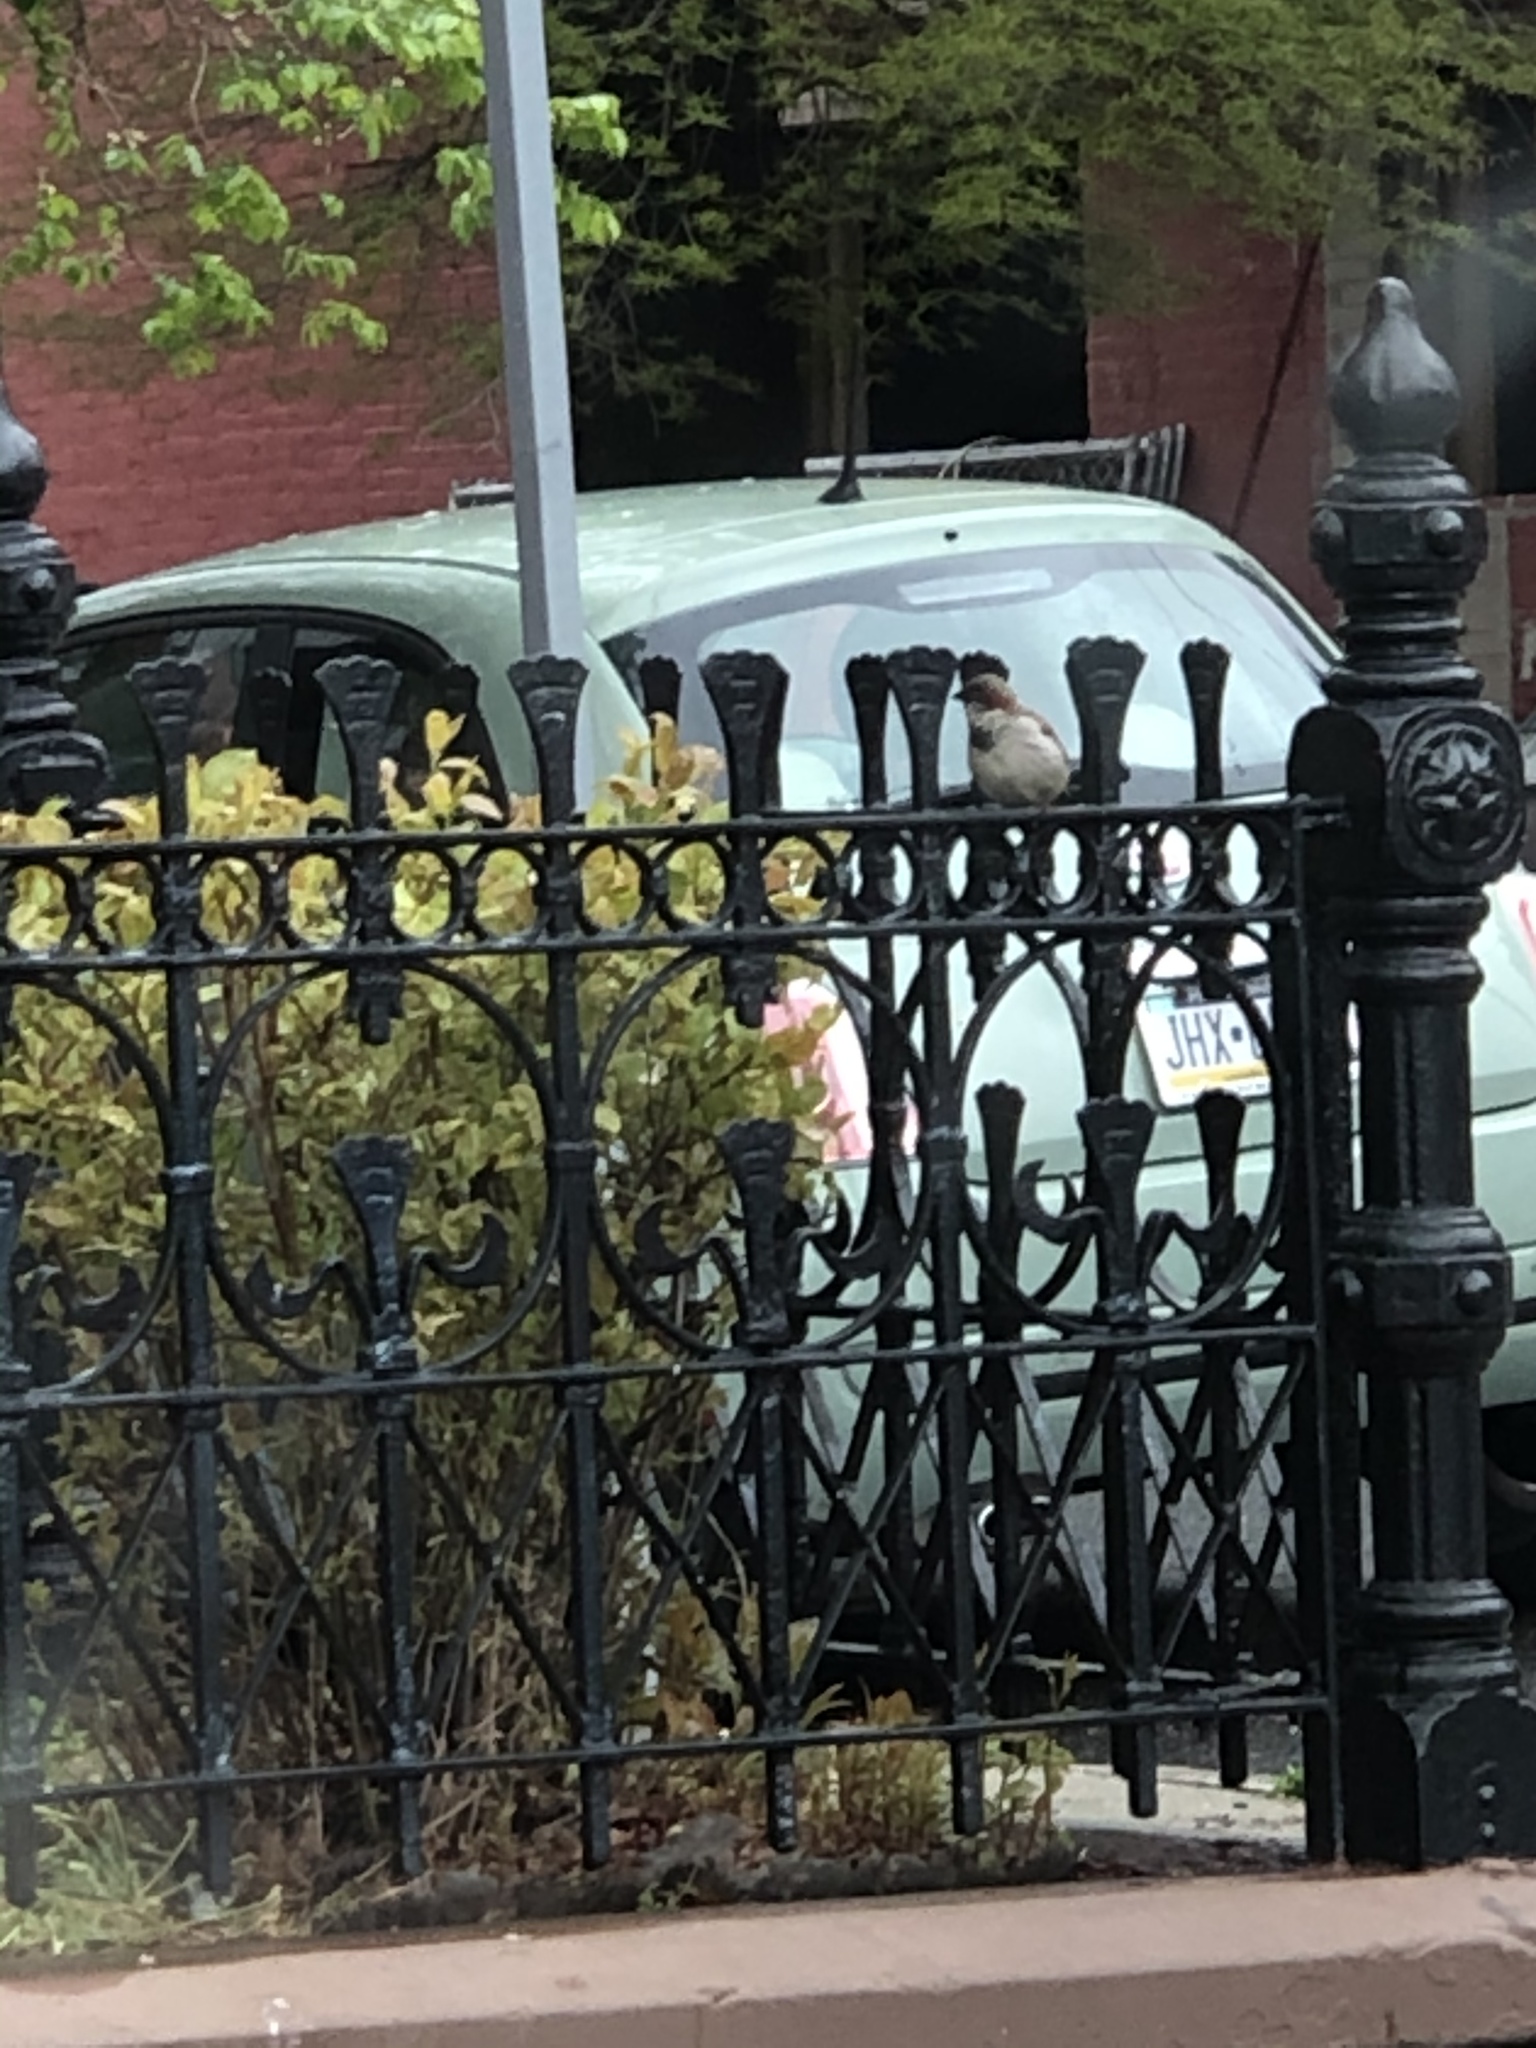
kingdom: Animalia
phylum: Chordata
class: Aves
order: Passeriformes
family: Passeridae
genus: Passer
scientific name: Passer domesticus
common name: House sparrow
